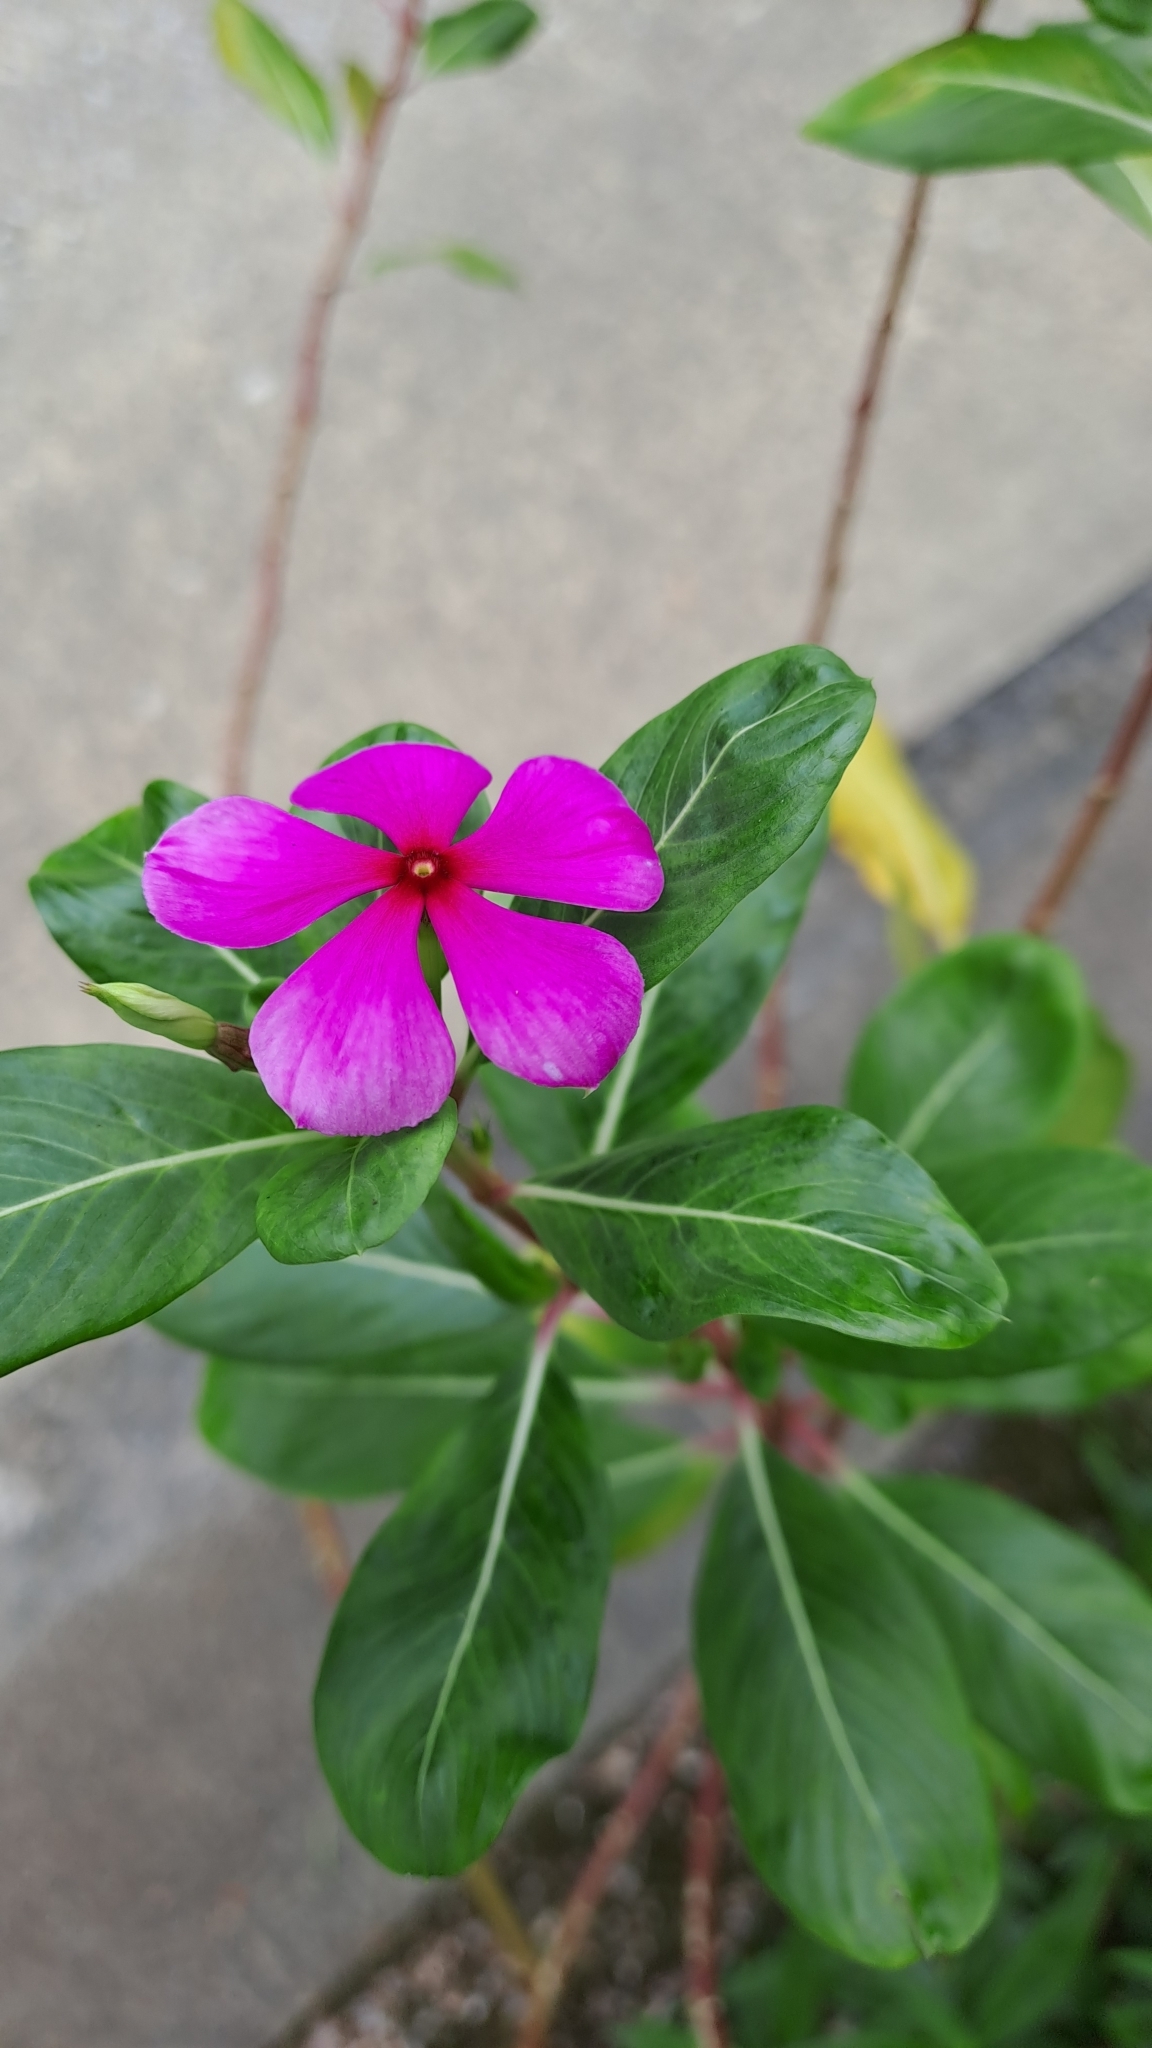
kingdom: Plantae
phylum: Tracheophyta
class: Magnoliopsida
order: Gentianales
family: Apocynaceae
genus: Catharanthus
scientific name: Catharanthus roseus
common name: Madagascar periwinkle
